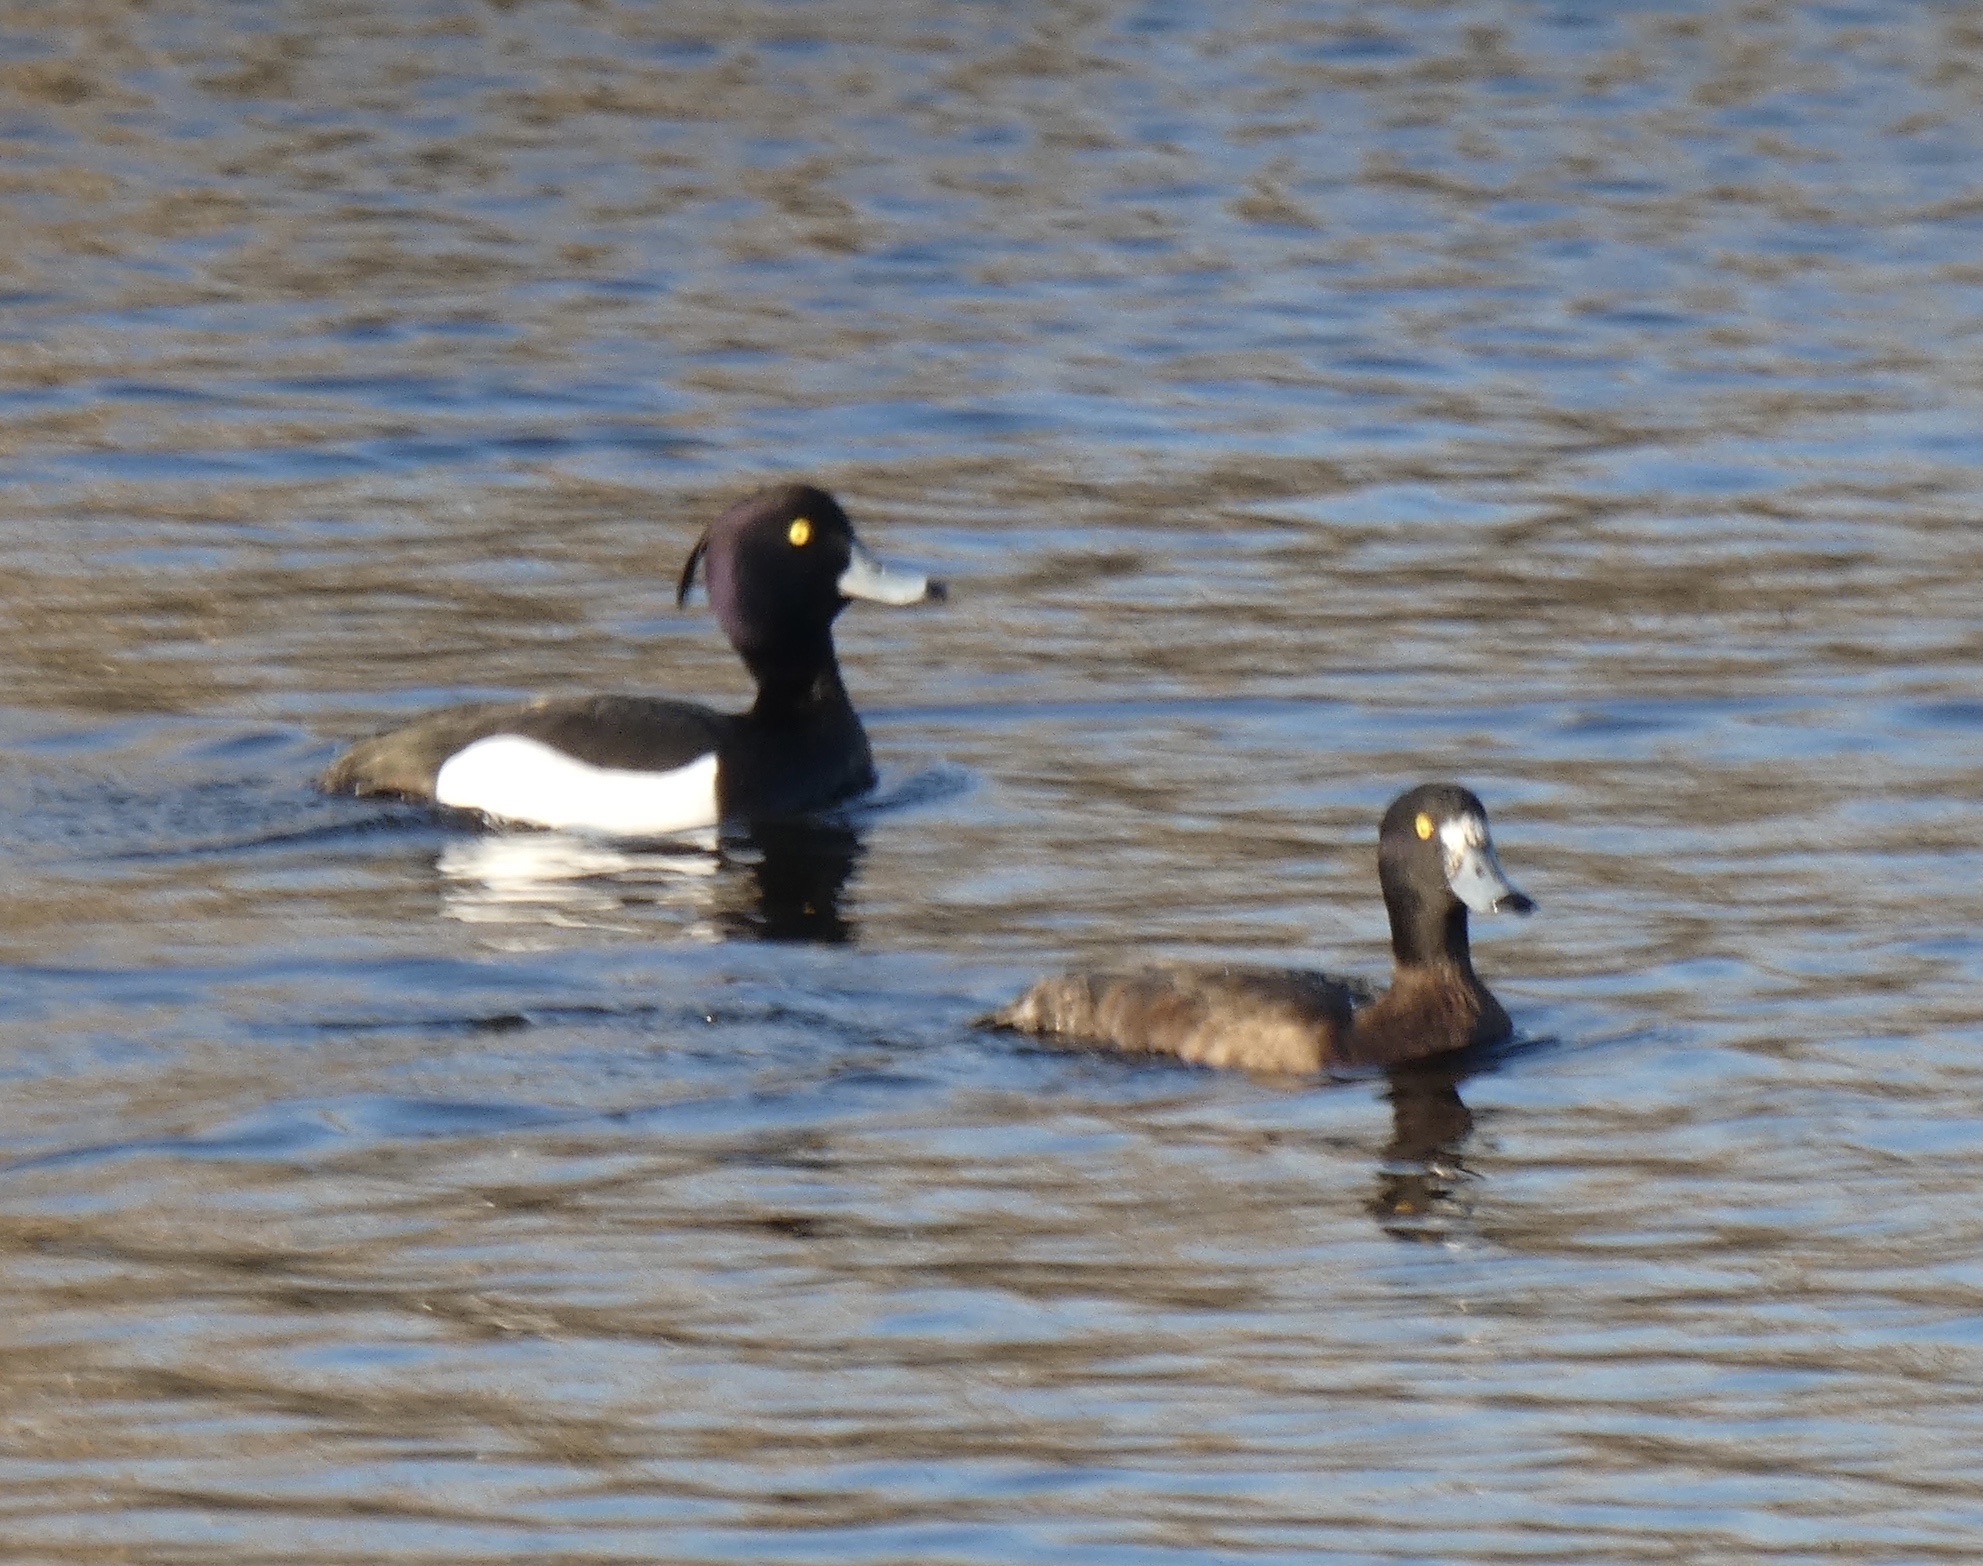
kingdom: Animalia
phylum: Chordata
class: Aves
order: Anseriformes
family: Anatidae
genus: Aythya
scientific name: Aythya fuligula
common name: Tufted duck
